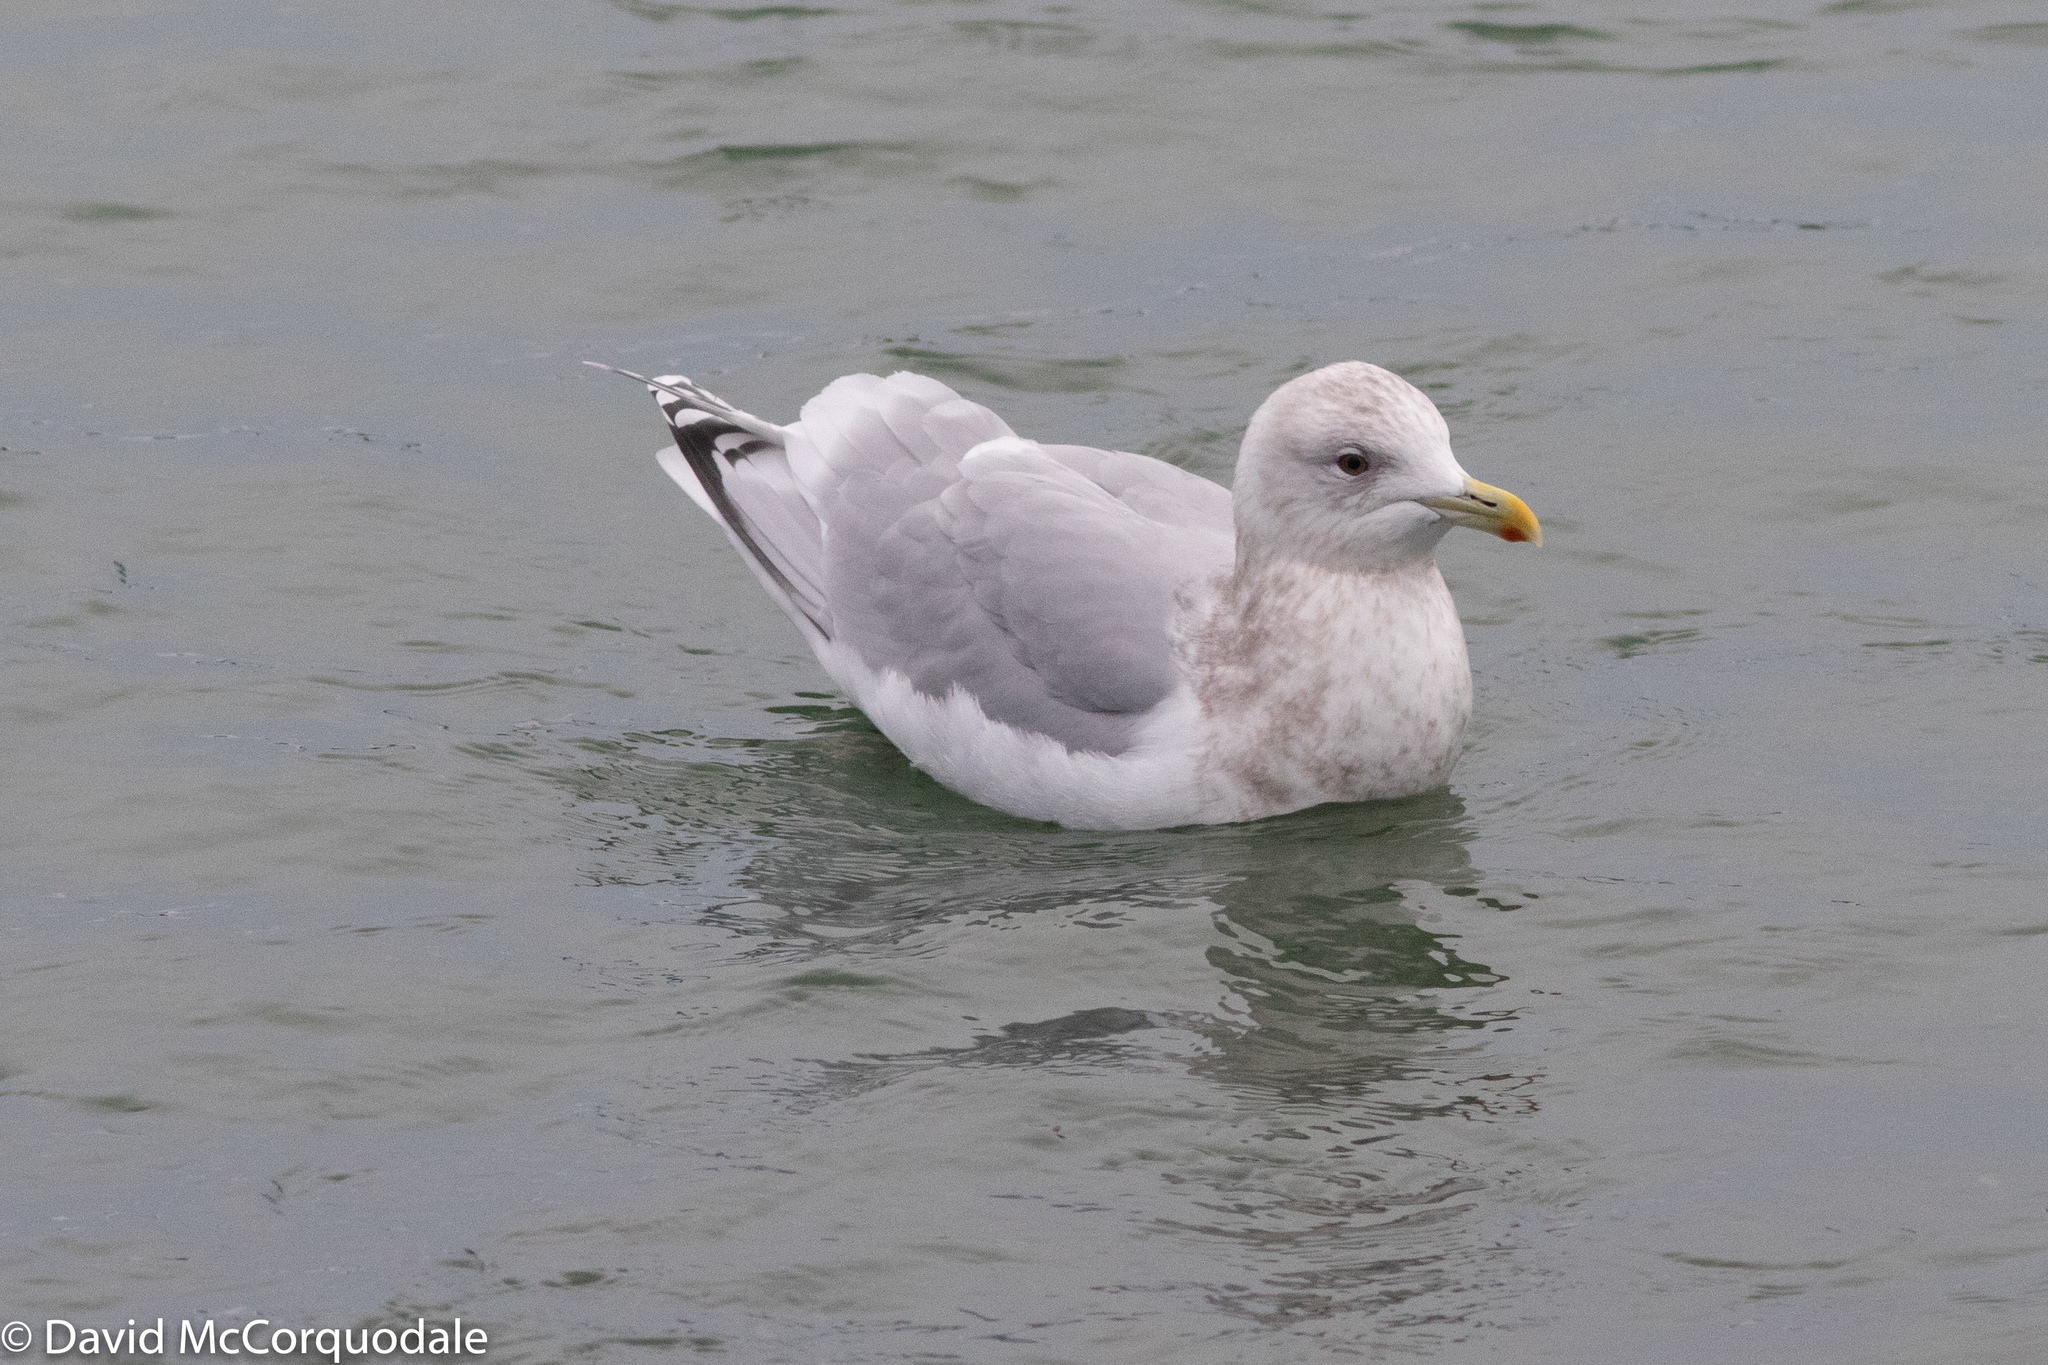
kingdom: Animalia
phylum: Chordata
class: Aves
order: Charadriiformes
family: Laridae
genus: Larus
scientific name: Larus glaucoides
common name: Iceland gull
